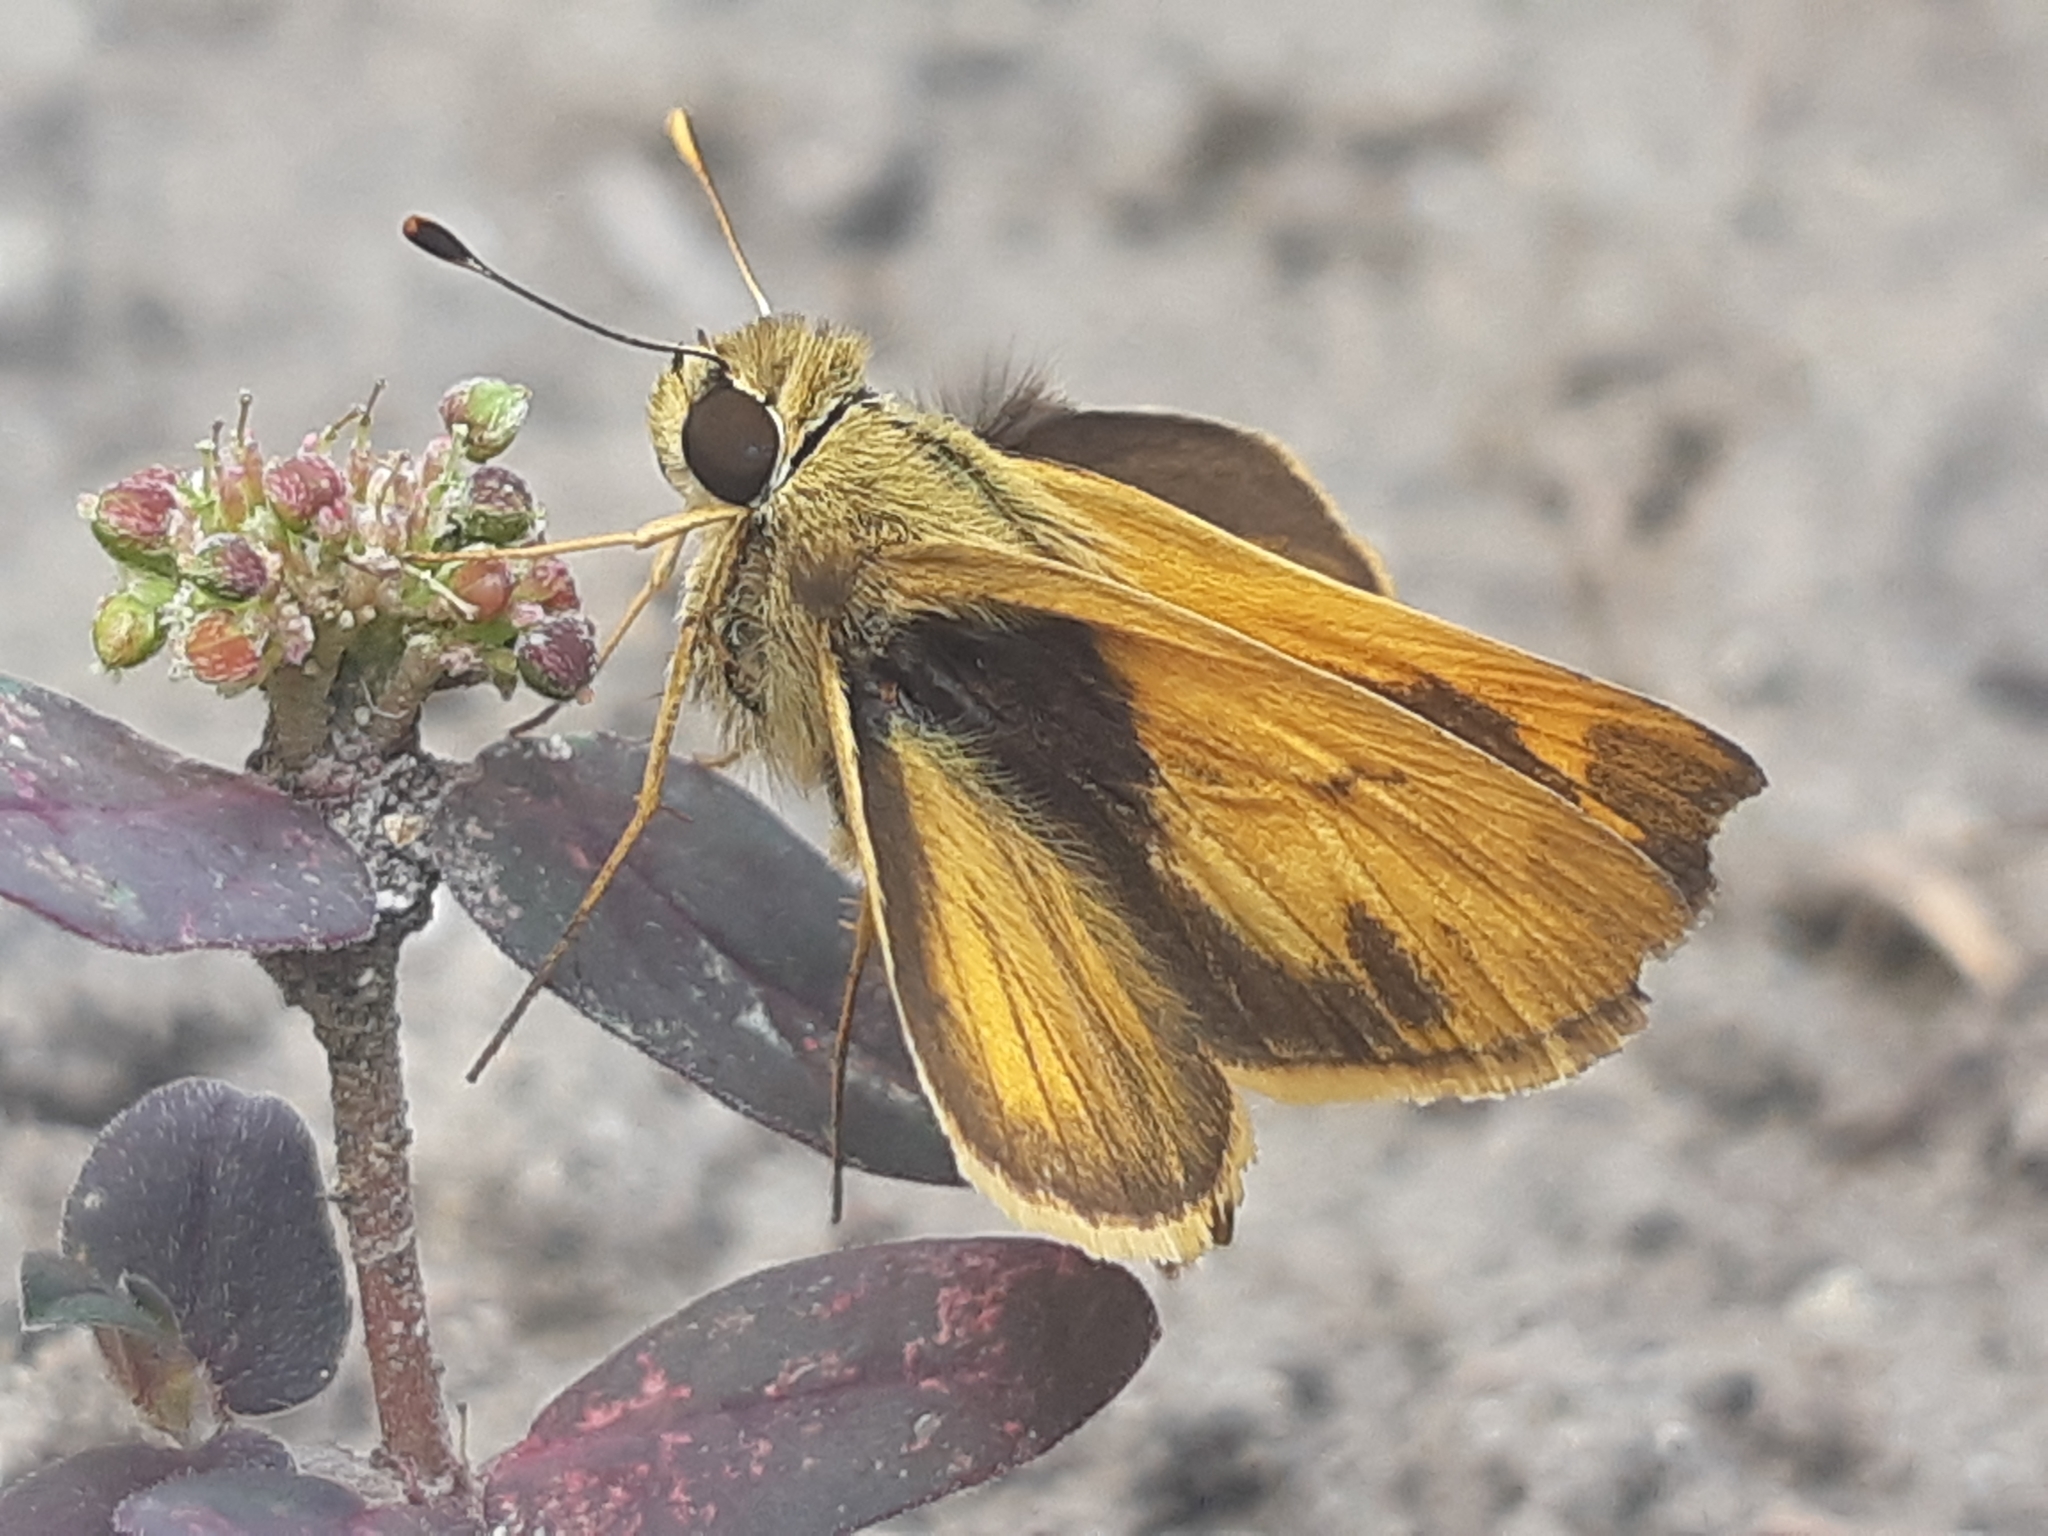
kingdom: Animalia
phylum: Arthropoda
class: Insecta
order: Lepidoptera
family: Hesperiidae
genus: Polites
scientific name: Polites vibex
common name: Whirlabout
